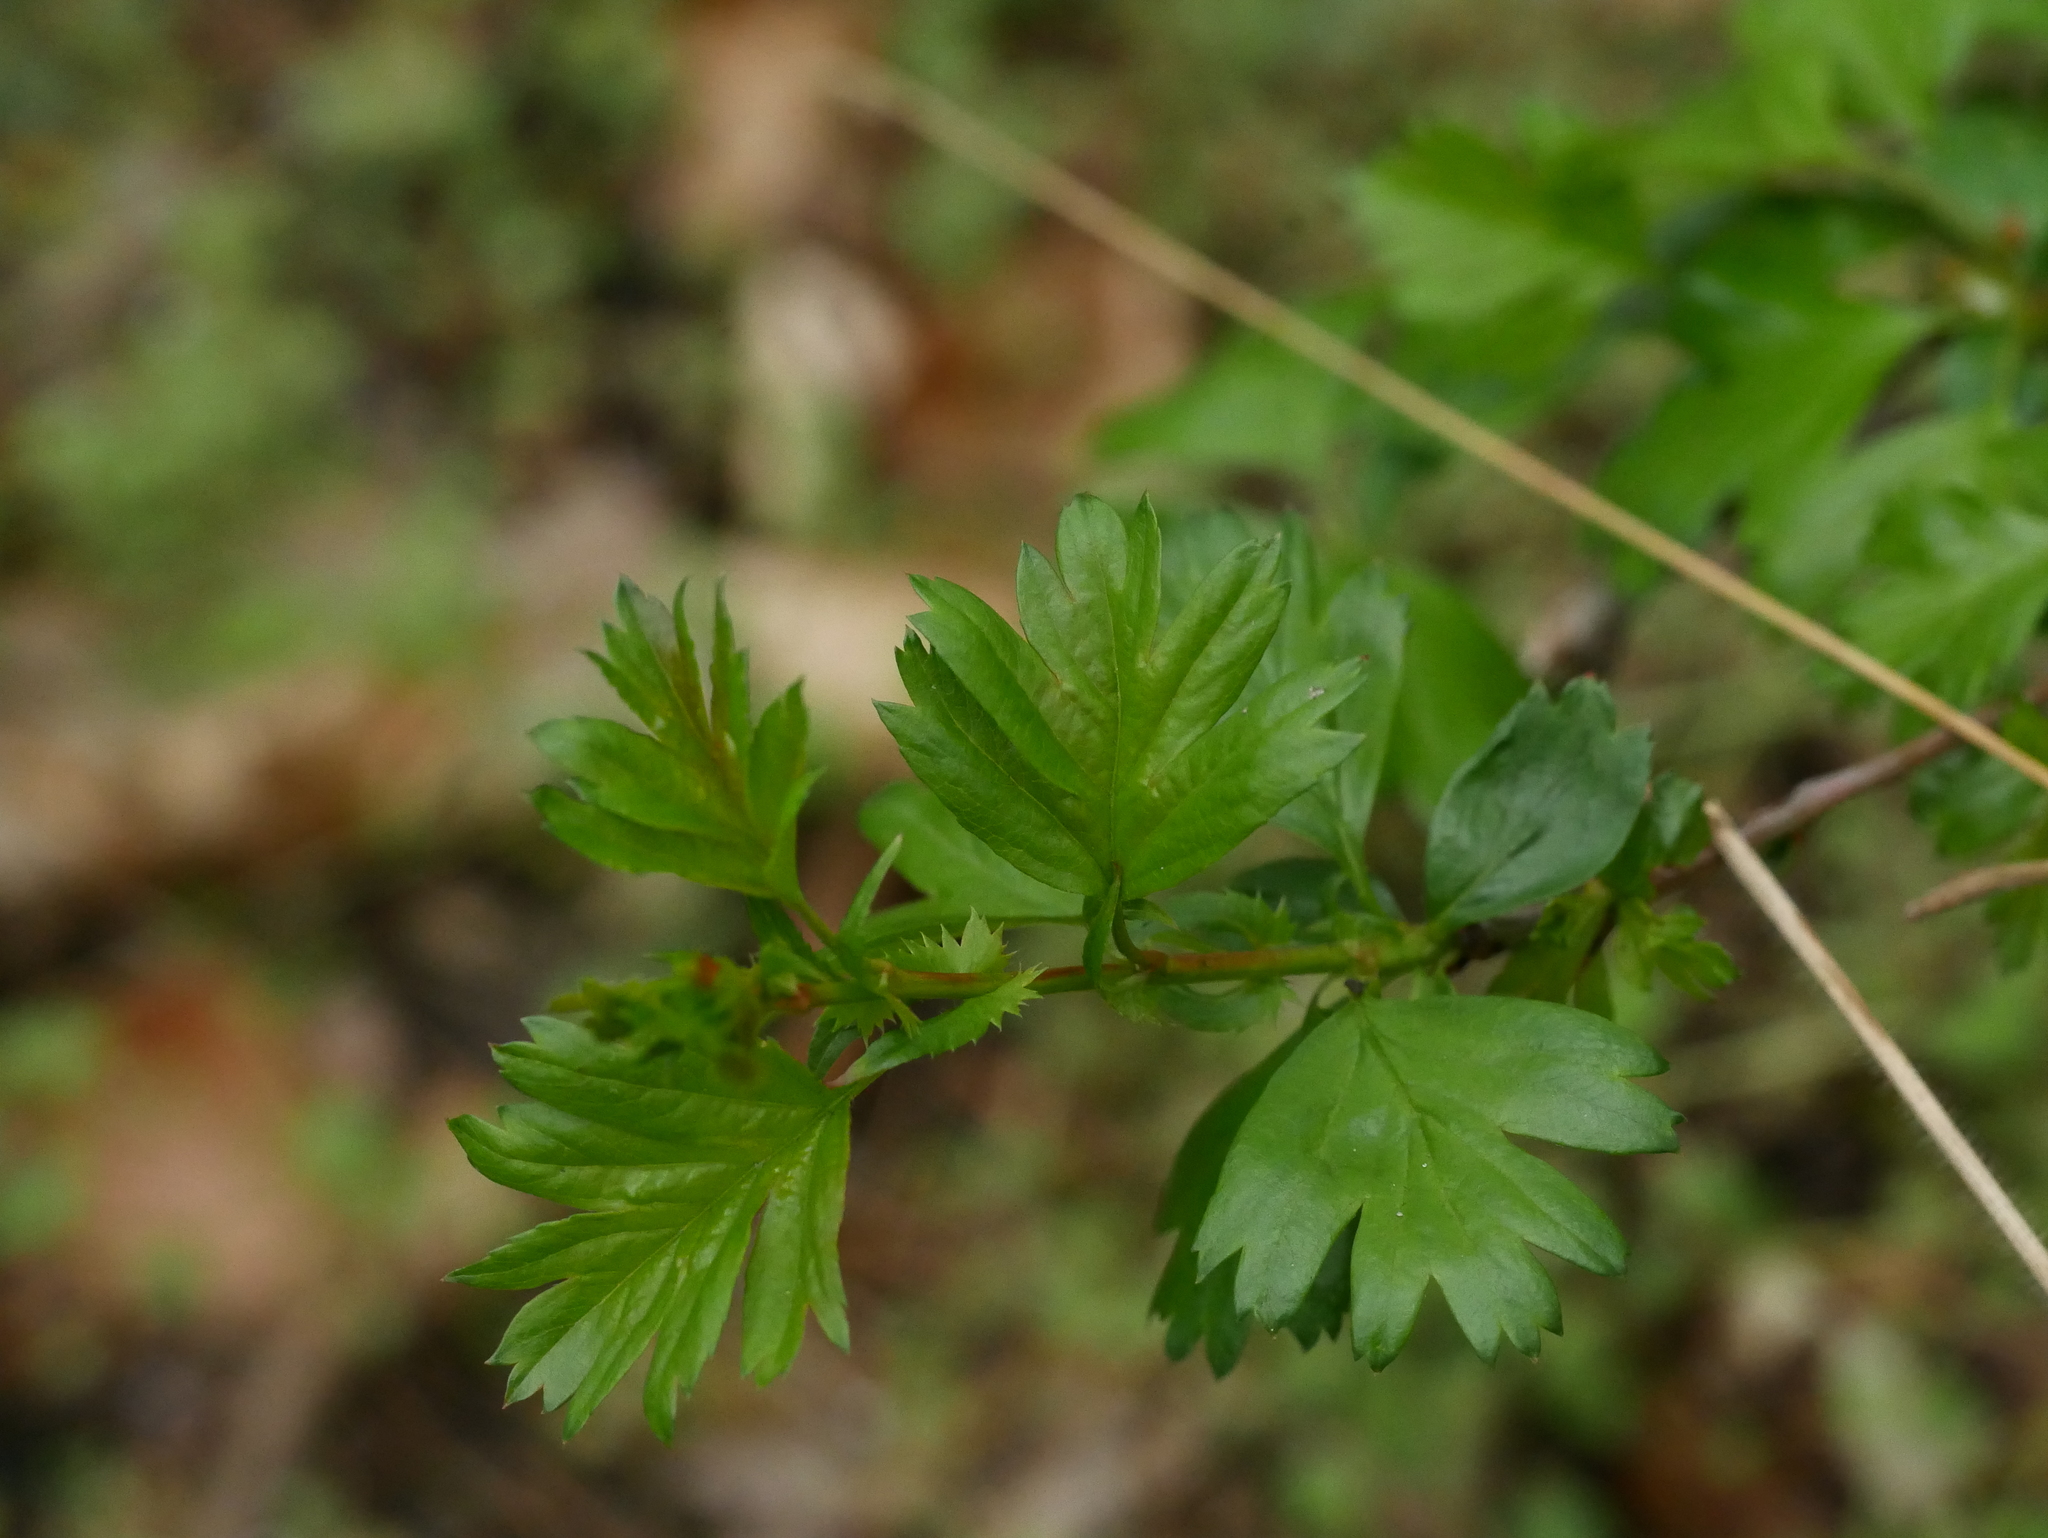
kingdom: Plantae
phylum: Tracheophyta
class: Magnoliopsida
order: Rosales
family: Rosaceae
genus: Crataegus
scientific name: Crataegus monogyna
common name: Hawthorn
